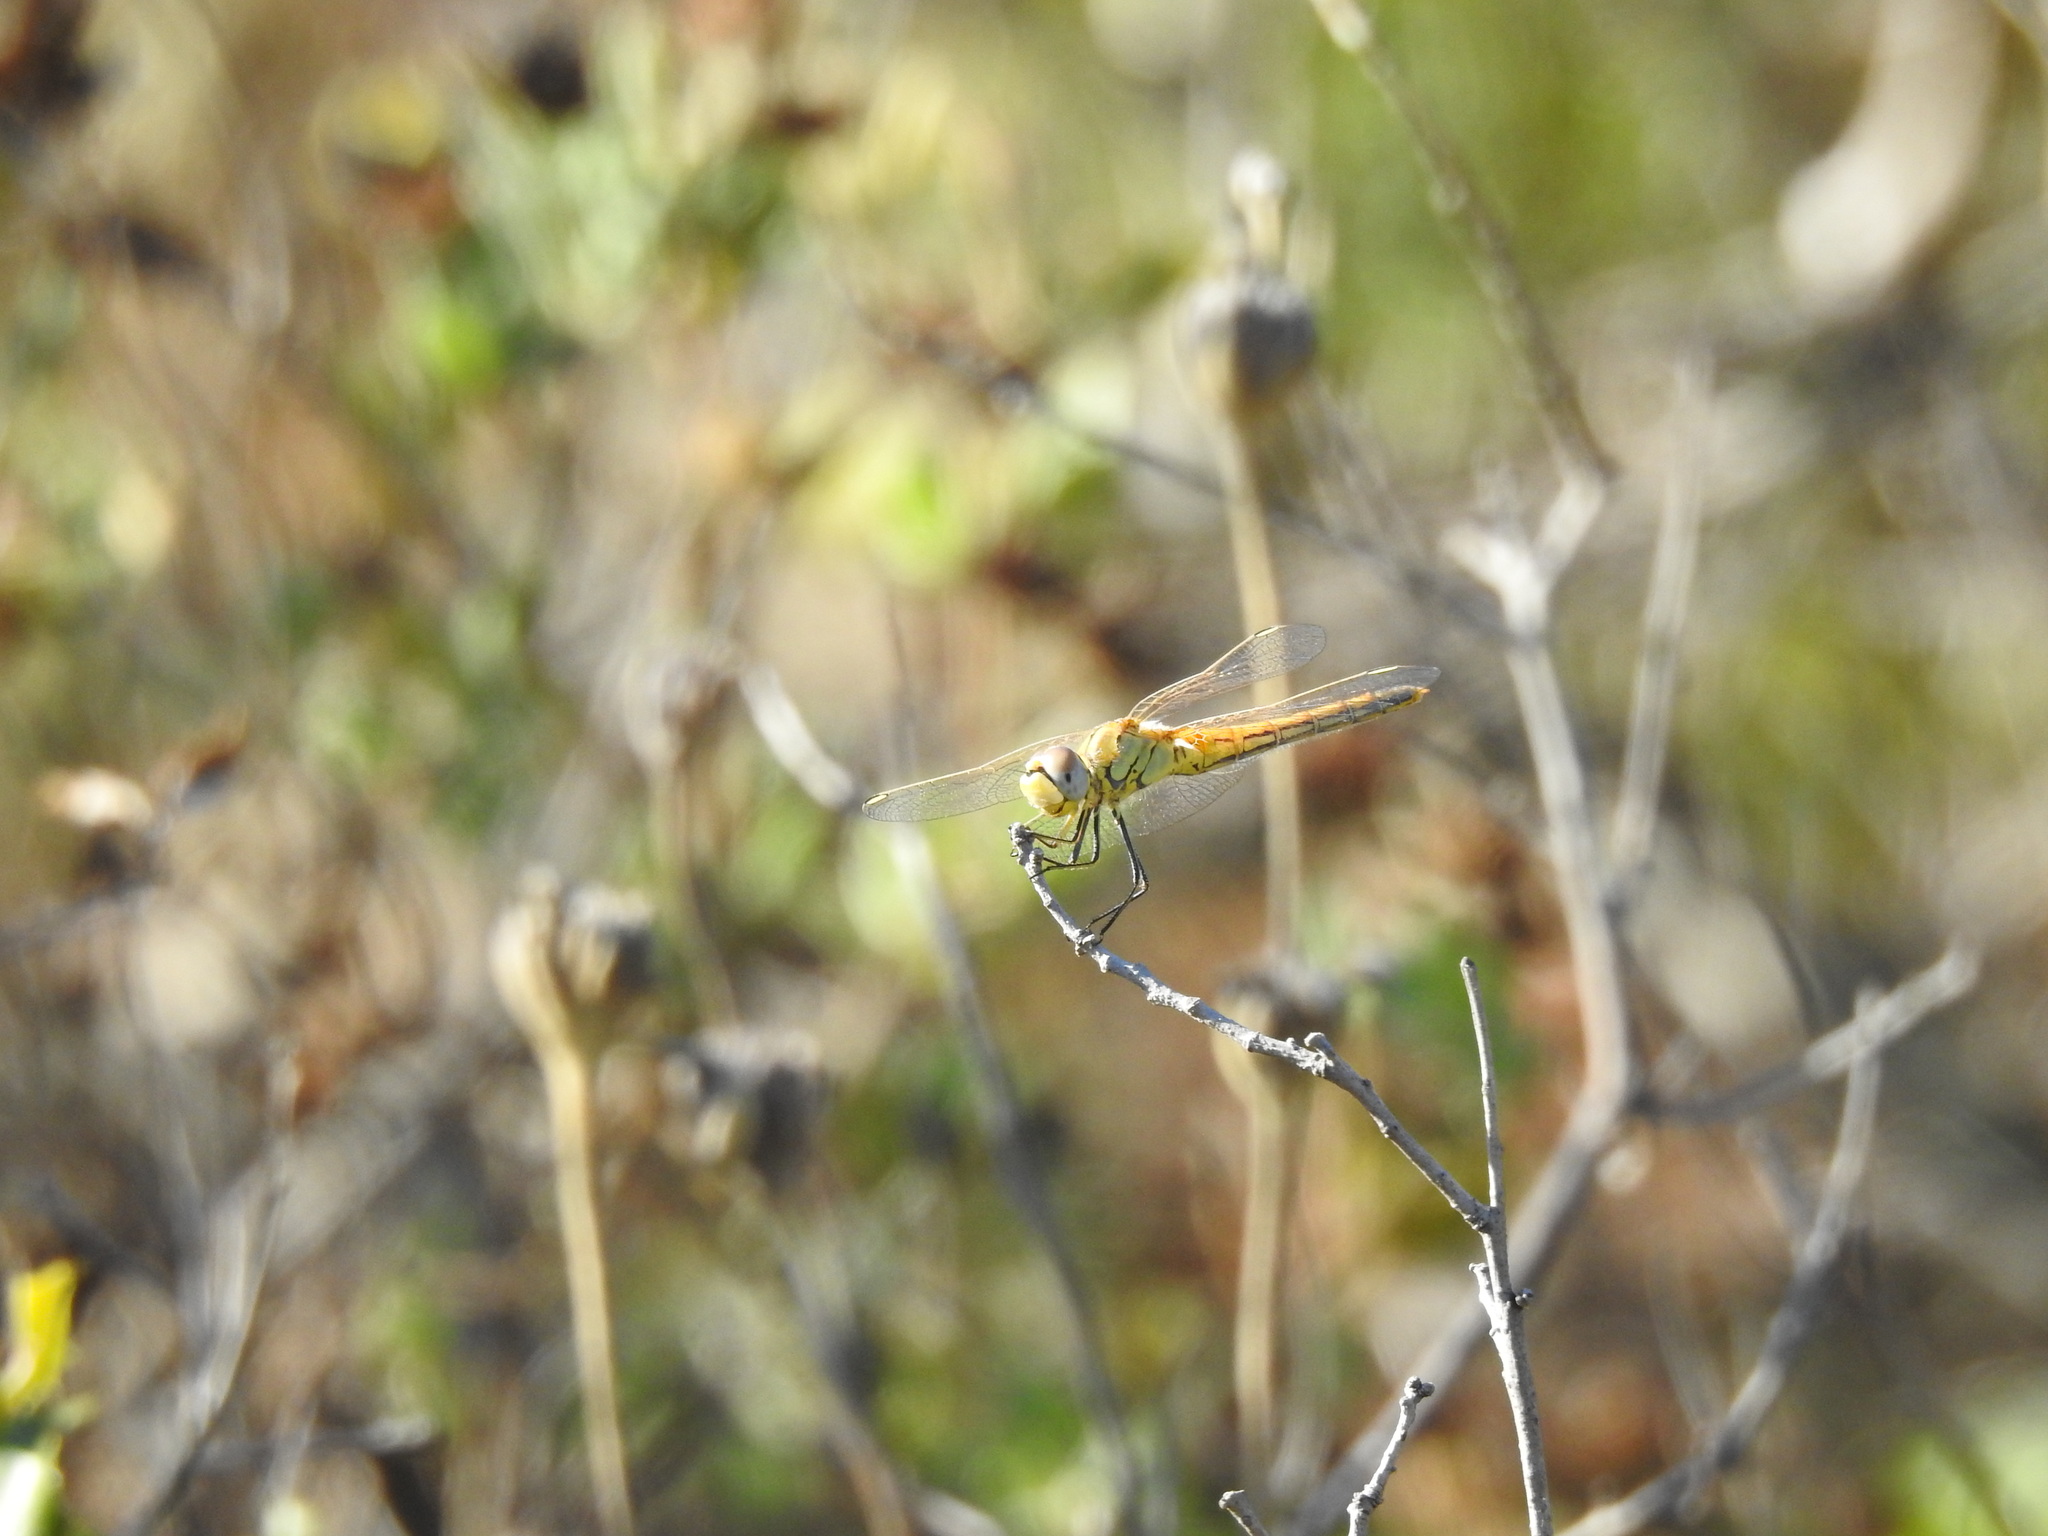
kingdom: Animalia
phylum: Arthropoda
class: Insecta
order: Odonata
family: Libellulidae
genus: Sympetrum
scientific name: Sympetrum fonscolombii
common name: Red-veined darter
